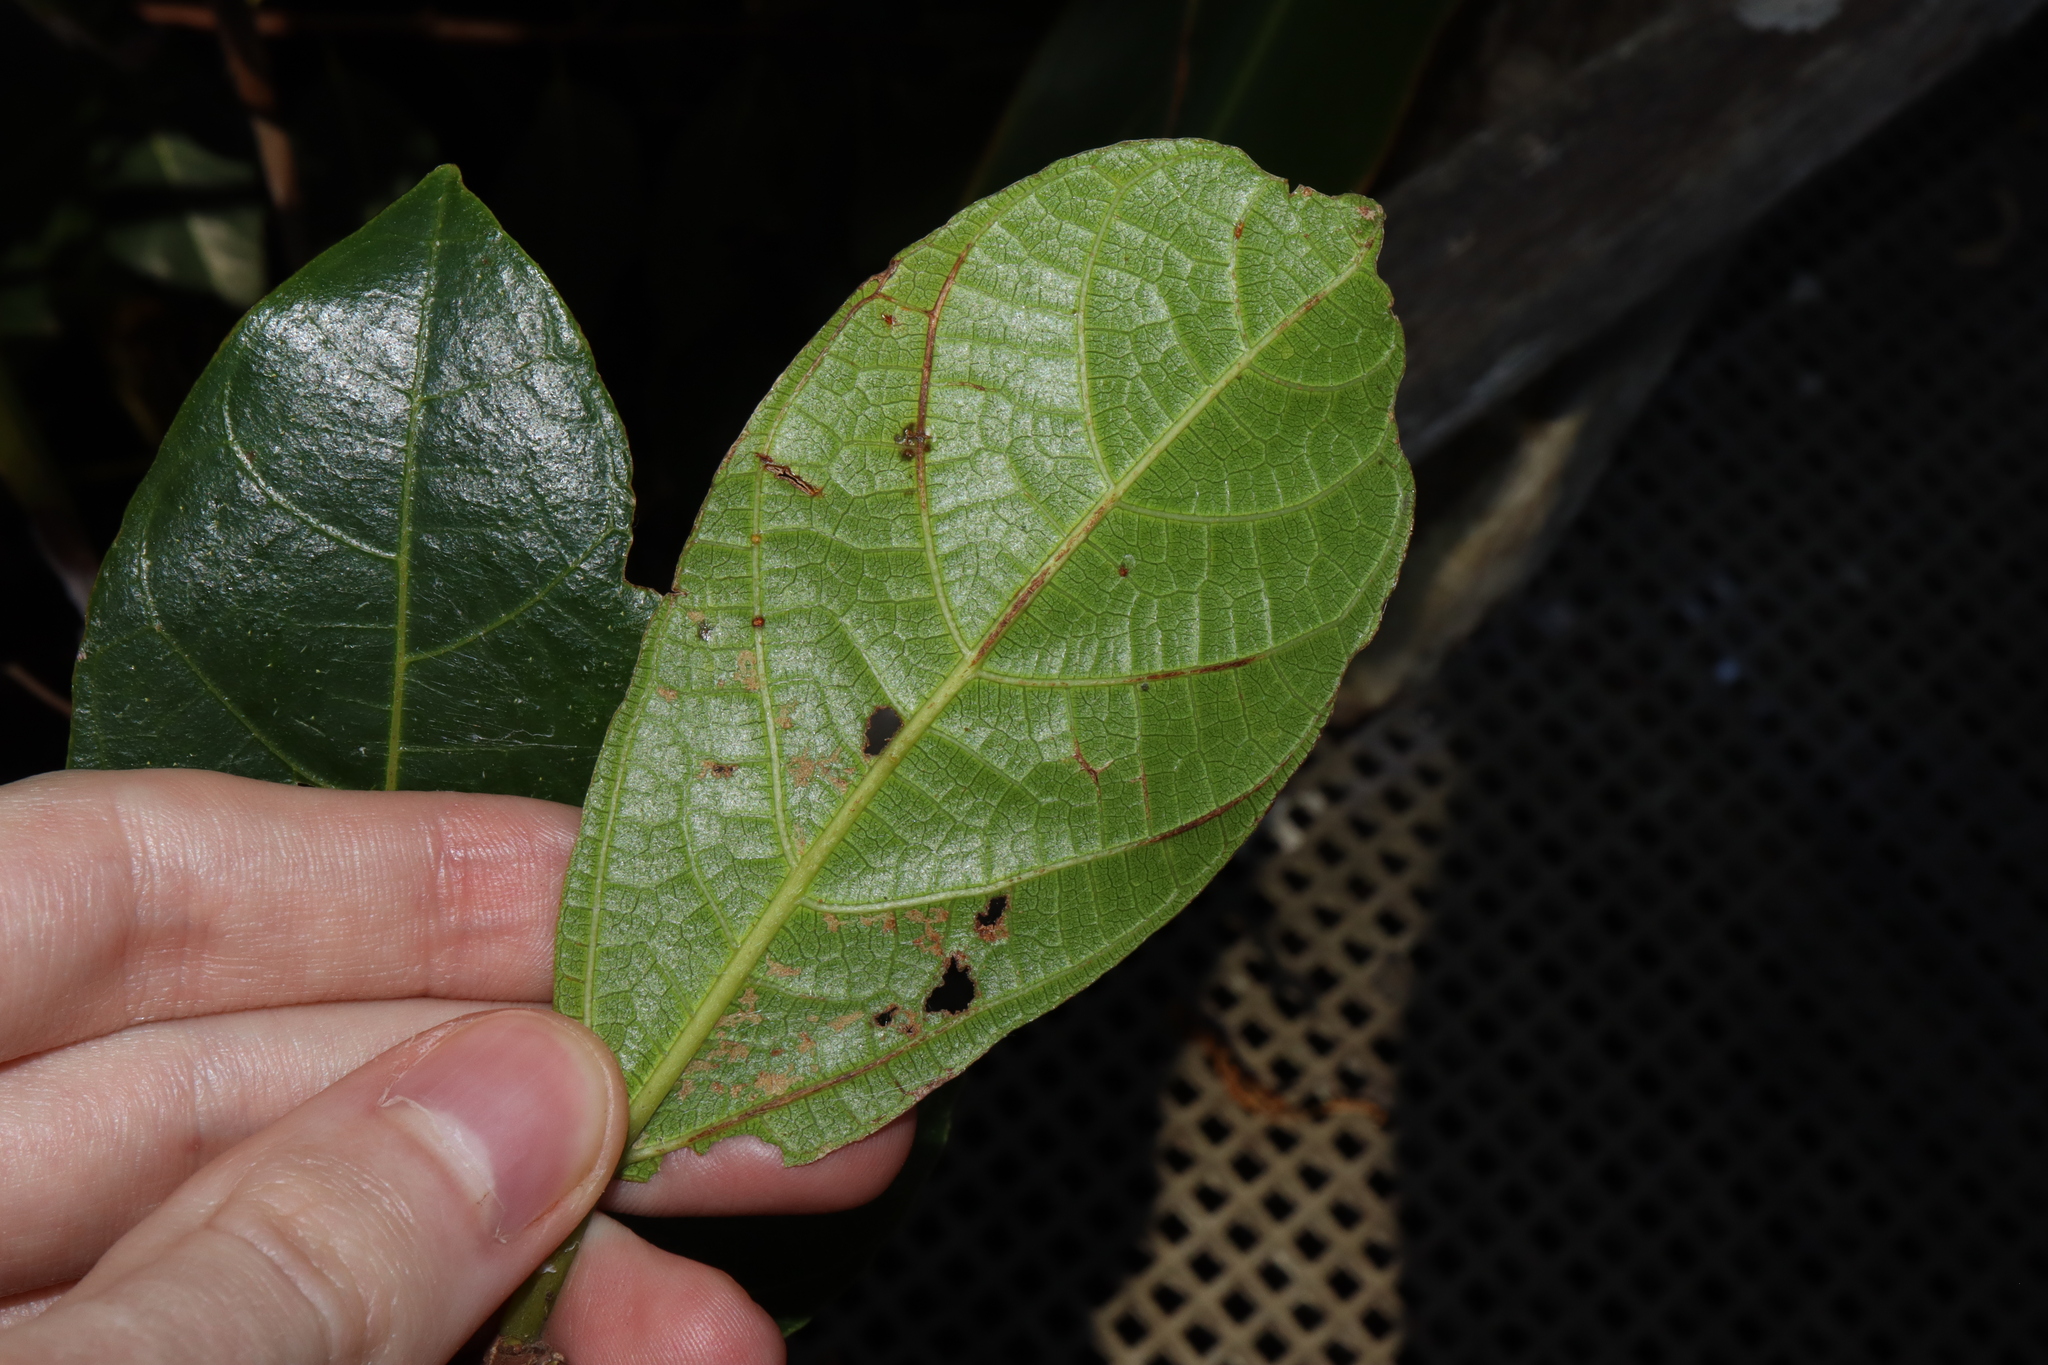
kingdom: Plantae
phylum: Tracheophyta
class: Magnoliopsida
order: Rosales
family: Moraceae
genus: Ficus
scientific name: Ficus fraseri
